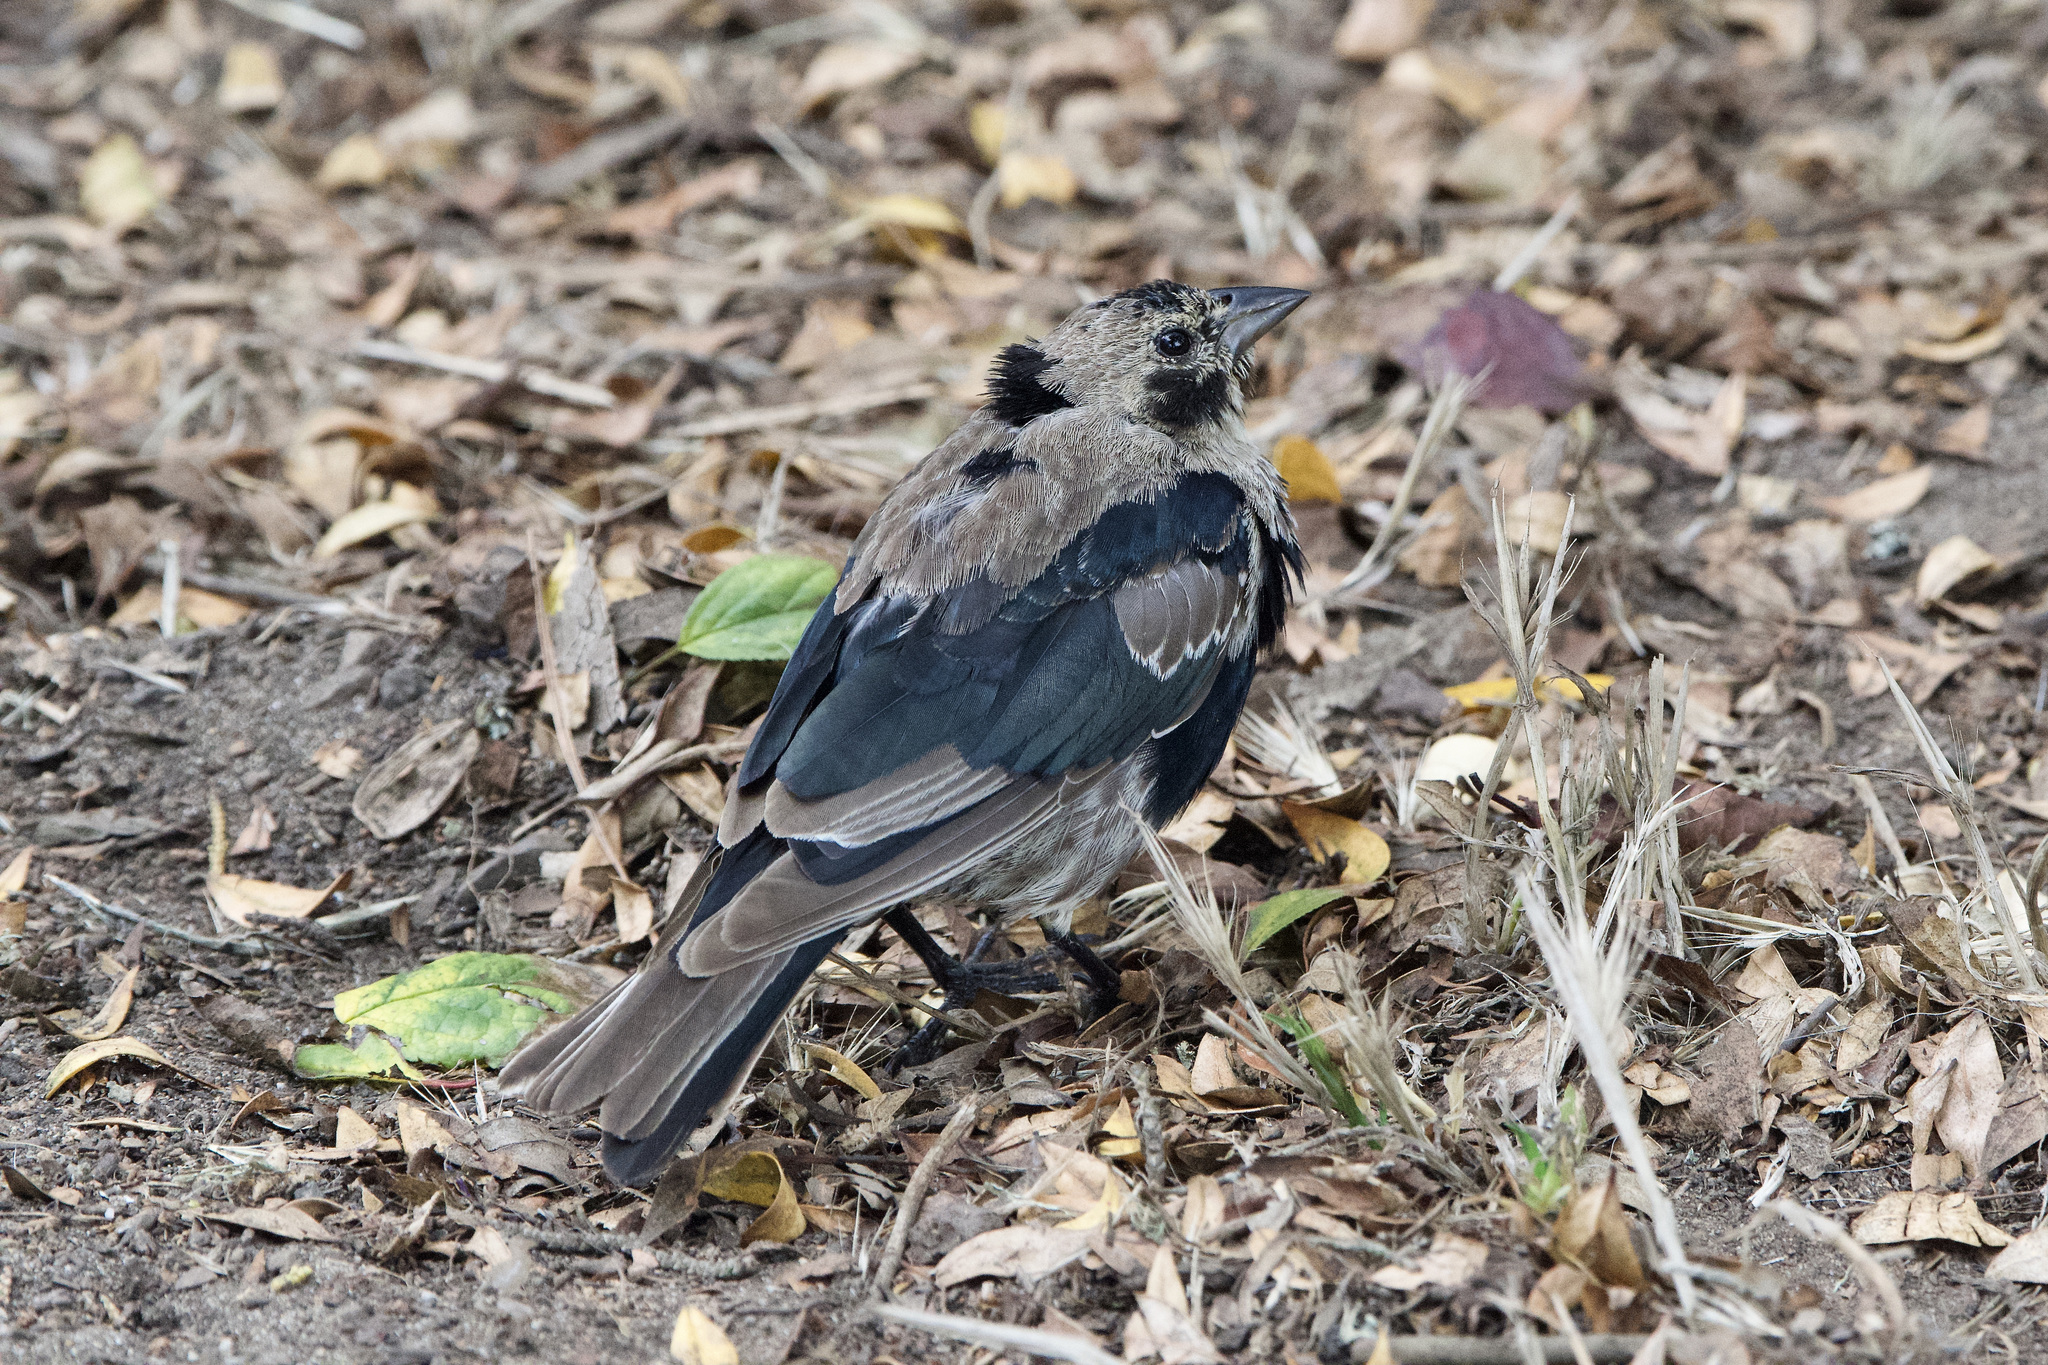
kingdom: Animalia
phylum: Chordata
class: Aves
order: Passeriformes
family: Icteridae
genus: Molothrus
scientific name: Molothrus ater
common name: Brown-headed cowbird
